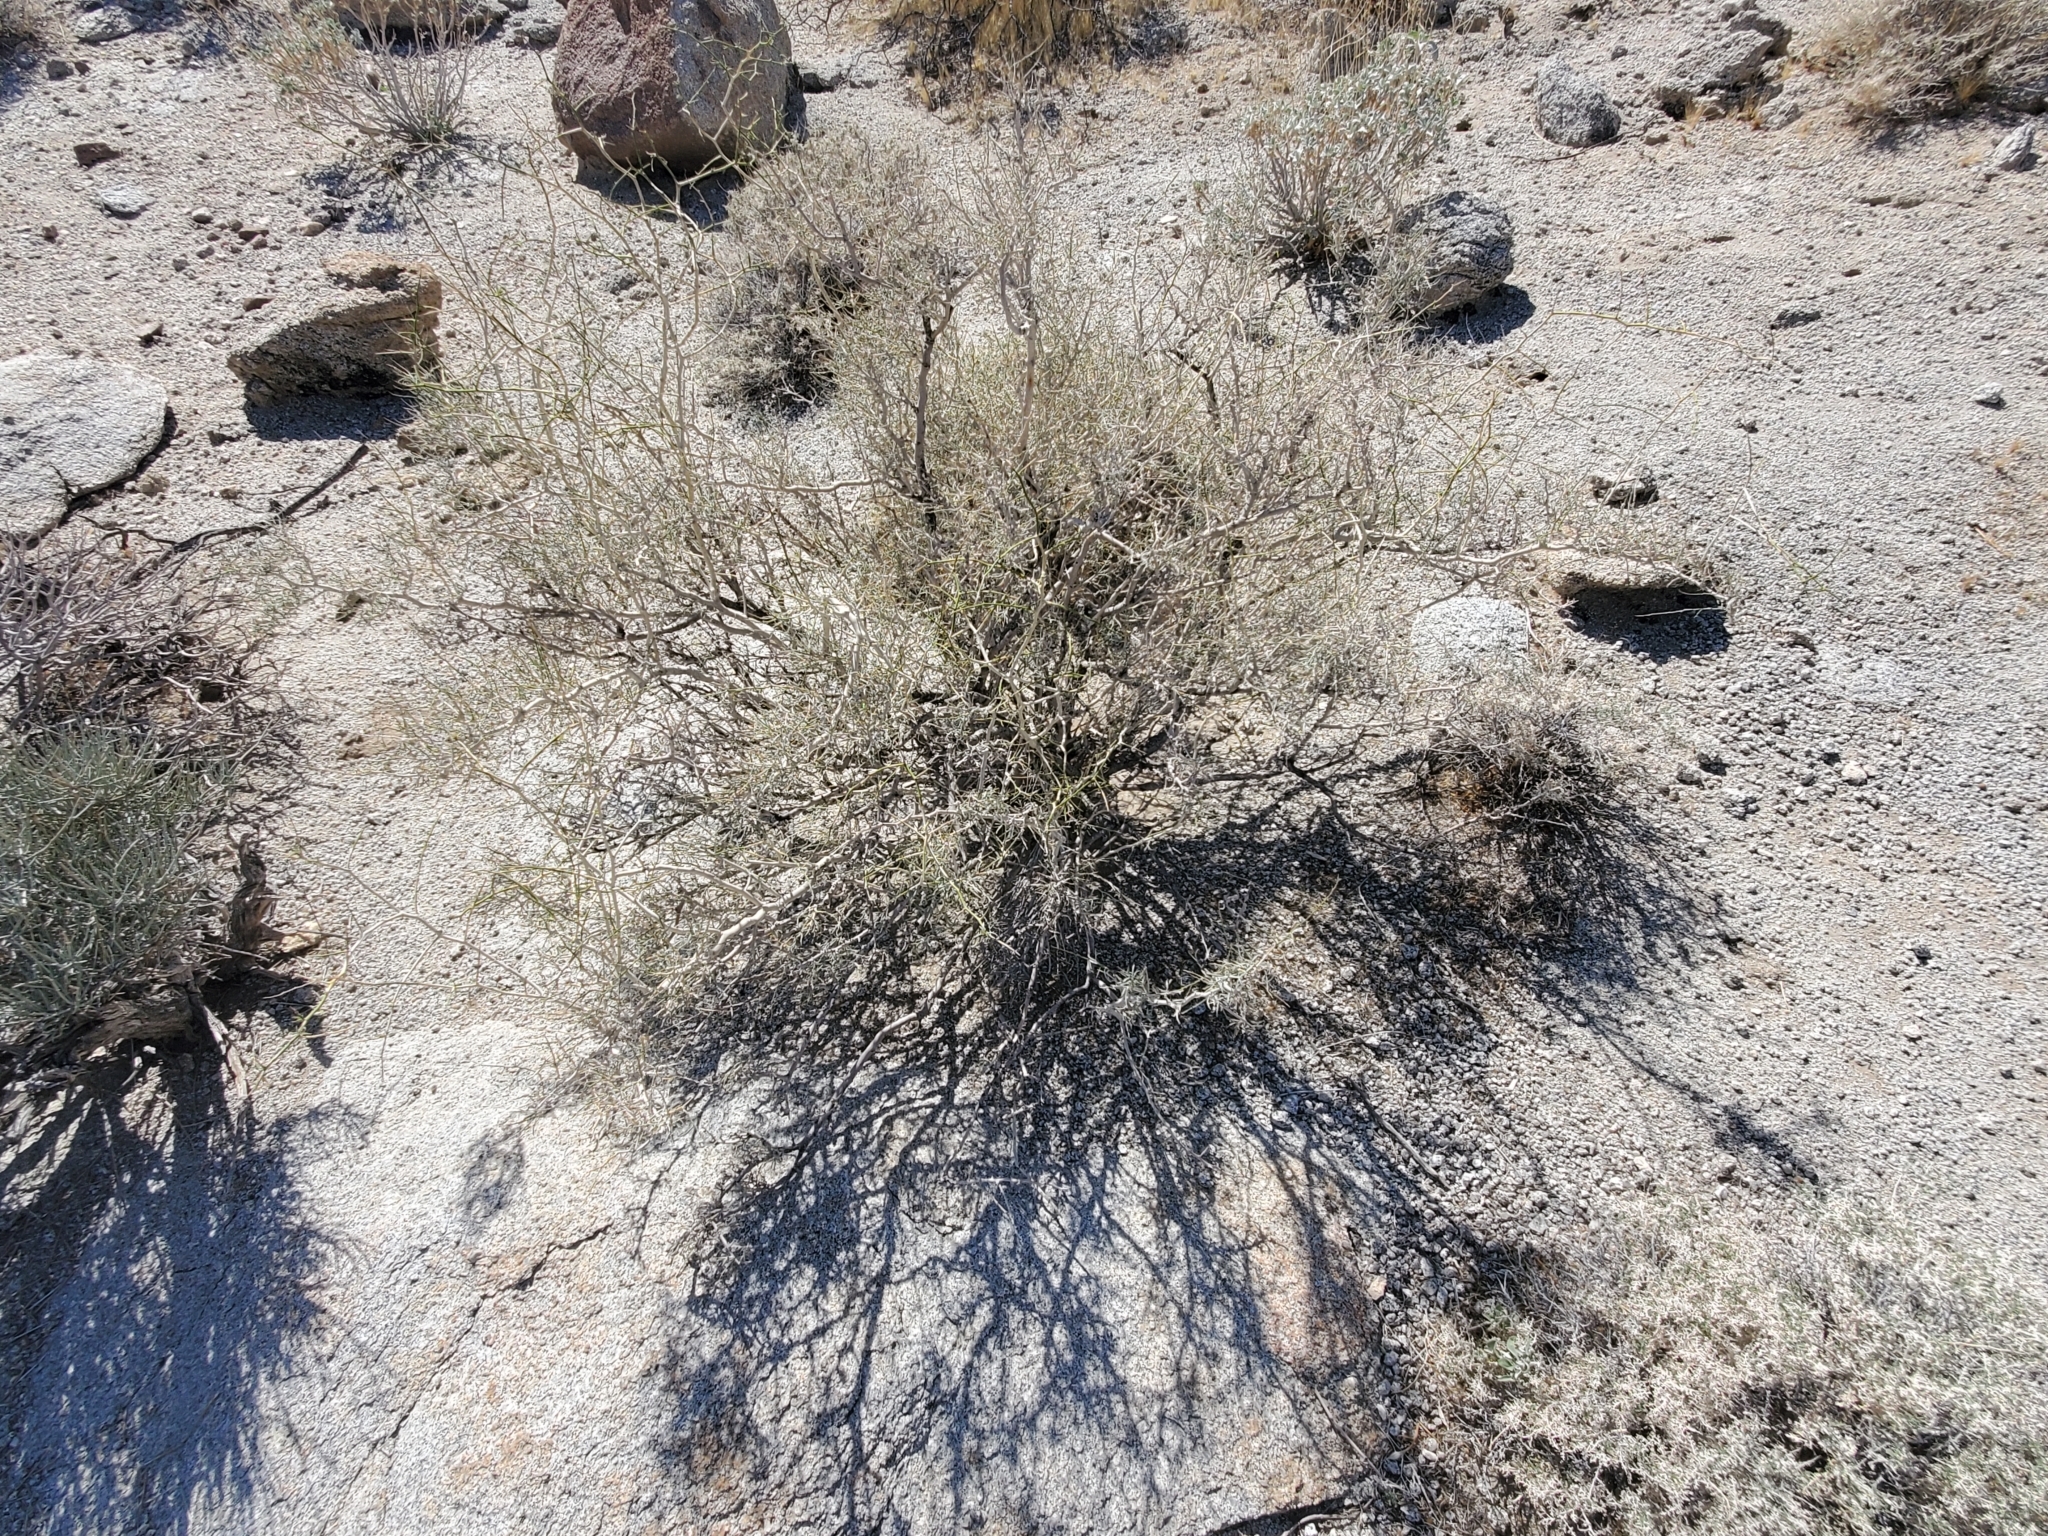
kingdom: Plantae
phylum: Tracheophyta
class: Magnoliopsida
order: Fabales
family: Fabaceae
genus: Psorothamnus
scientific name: Psorothamnus schottii
